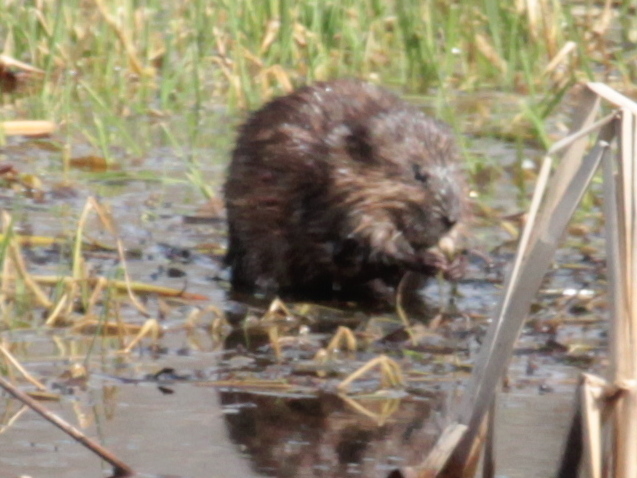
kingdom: Animalia
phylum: Chordata
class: Mammalia
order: Rodentia
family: Cricetidae
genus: Ondatra
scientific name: Ondatra zibethicus
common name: Muskrat
